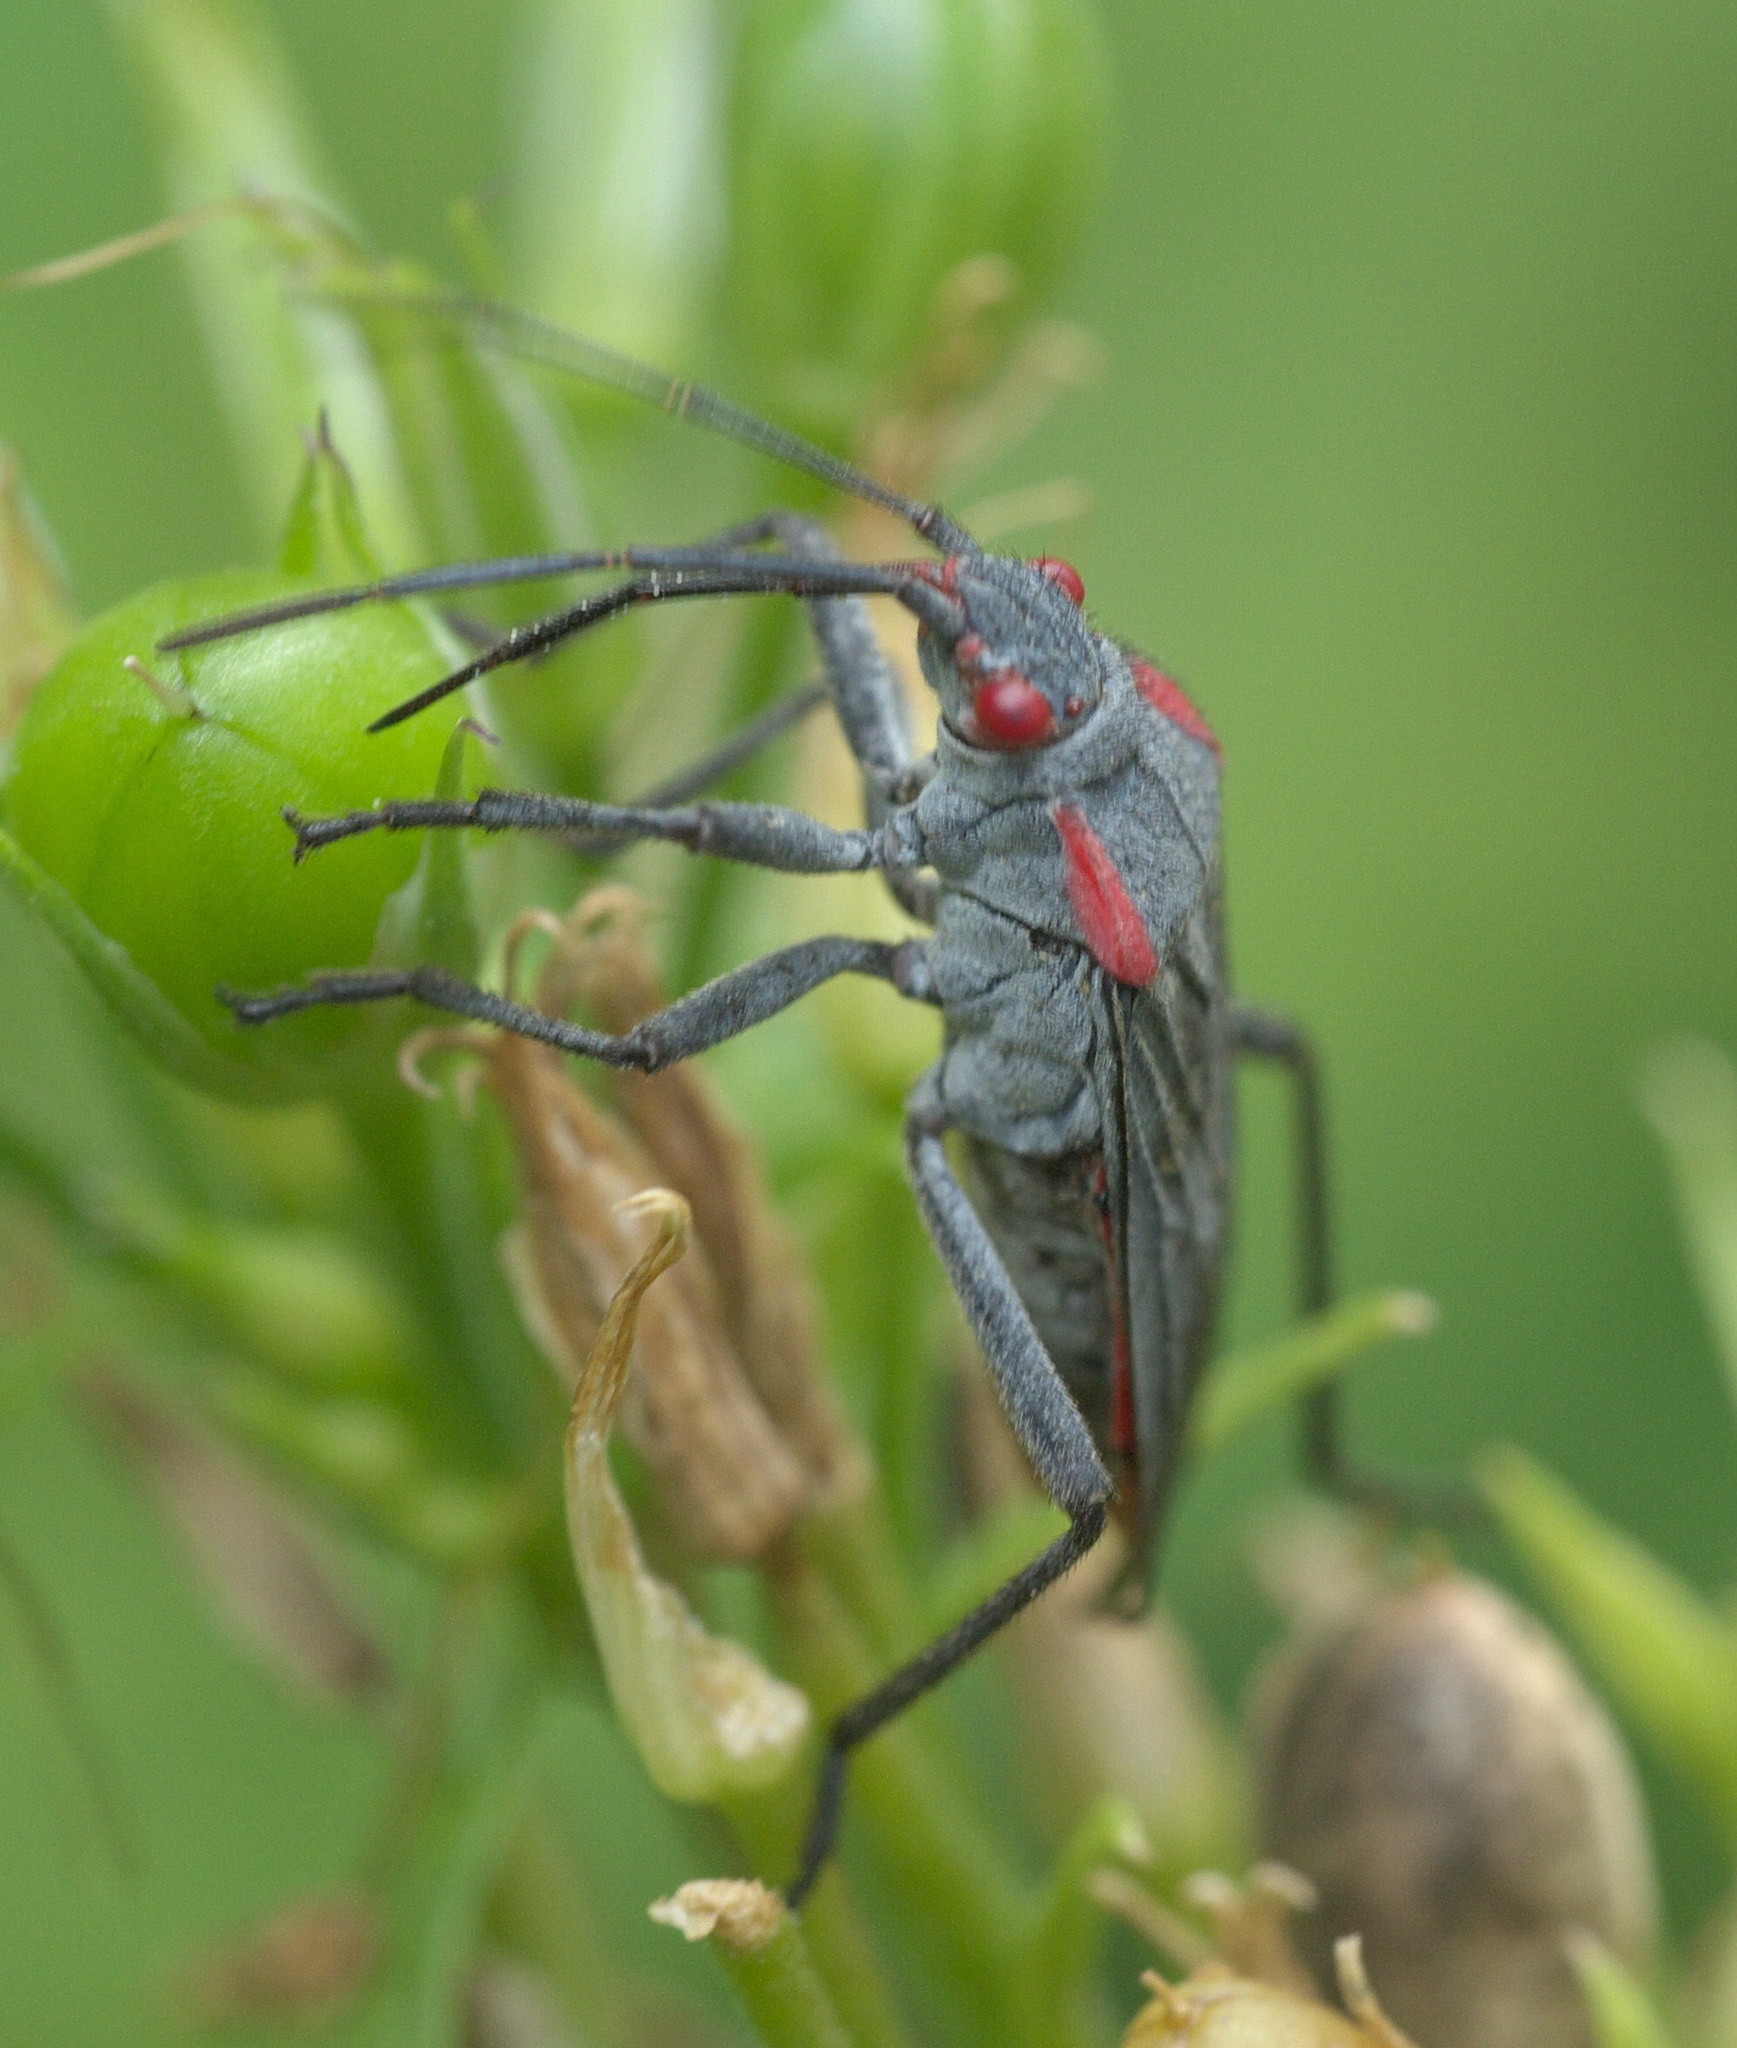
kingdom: Animalia
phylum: Arthropoda
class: Insecta
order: Hemiptera
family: Rhopalidae
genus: Jadera
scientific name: Jadera haematoloma
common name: Red-shouldered bug
